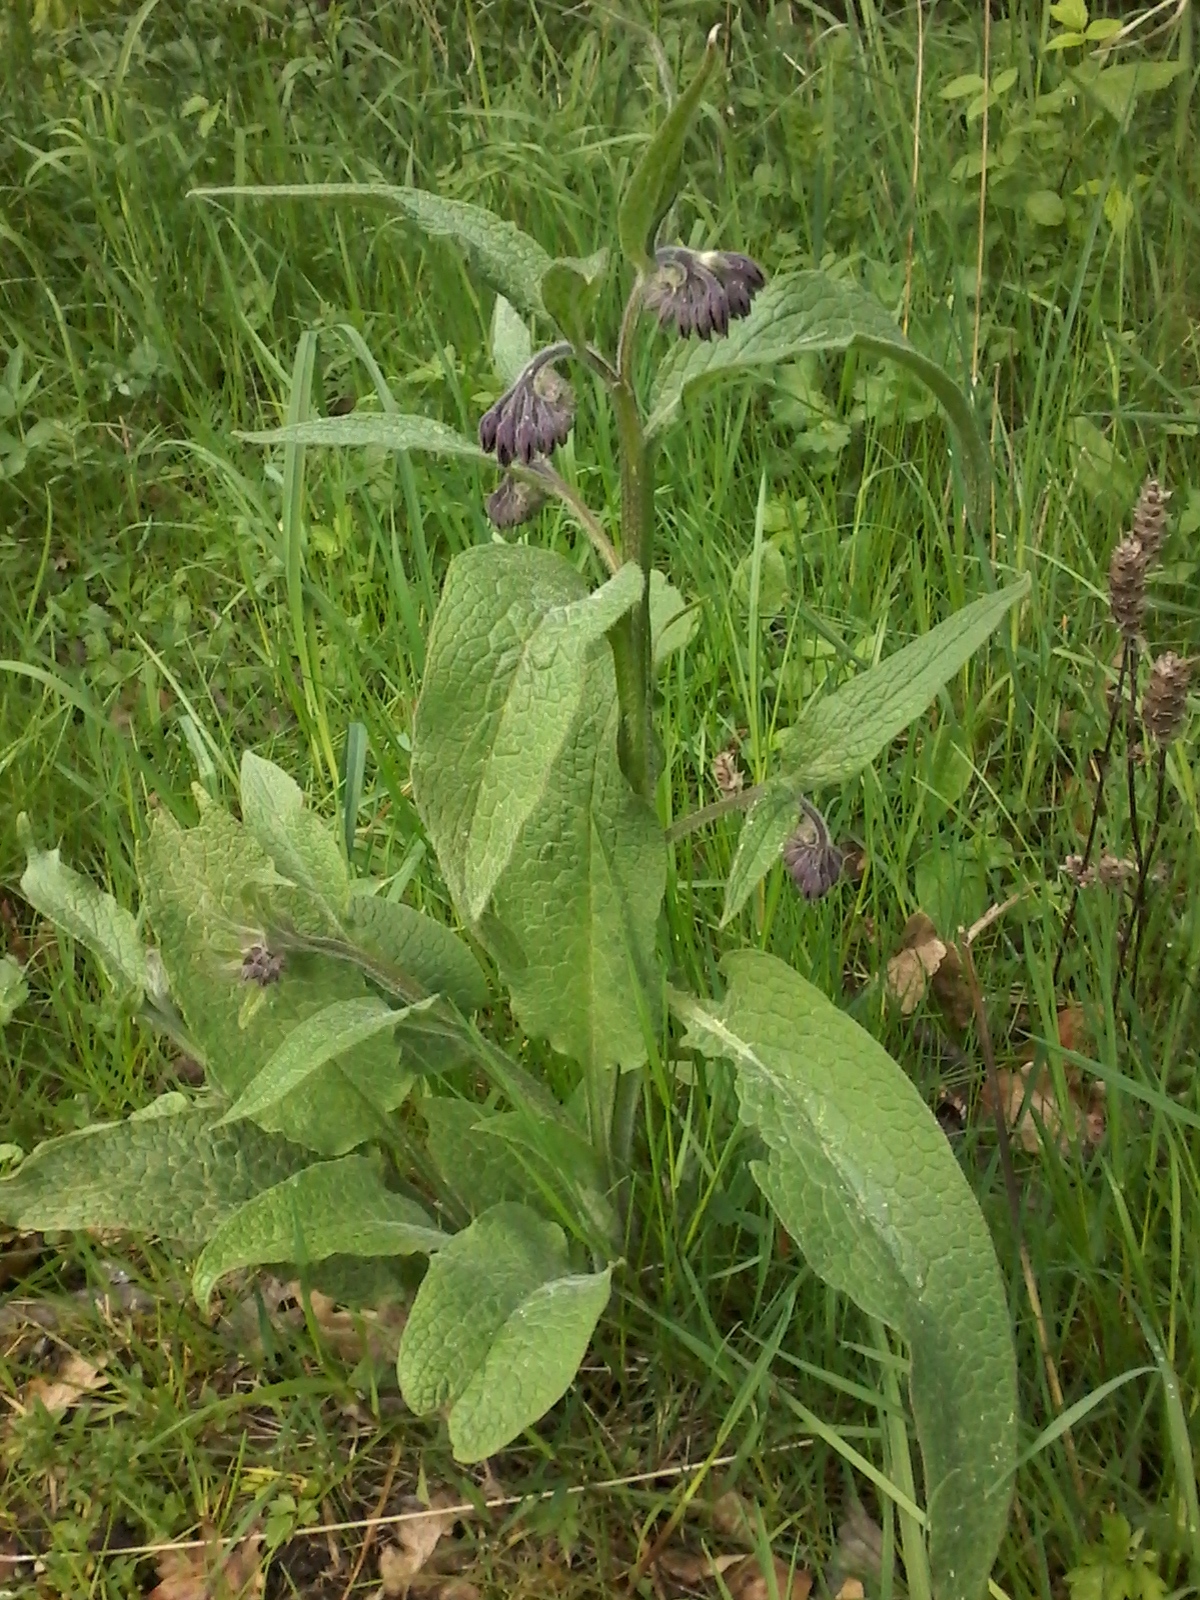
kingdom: Plantae
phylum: Tracheophyta
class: Magnoliopsida
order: Boraginales
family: Boraginaceae
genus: Symphytum
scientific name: Symphytum officinale
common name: Common comfrey
